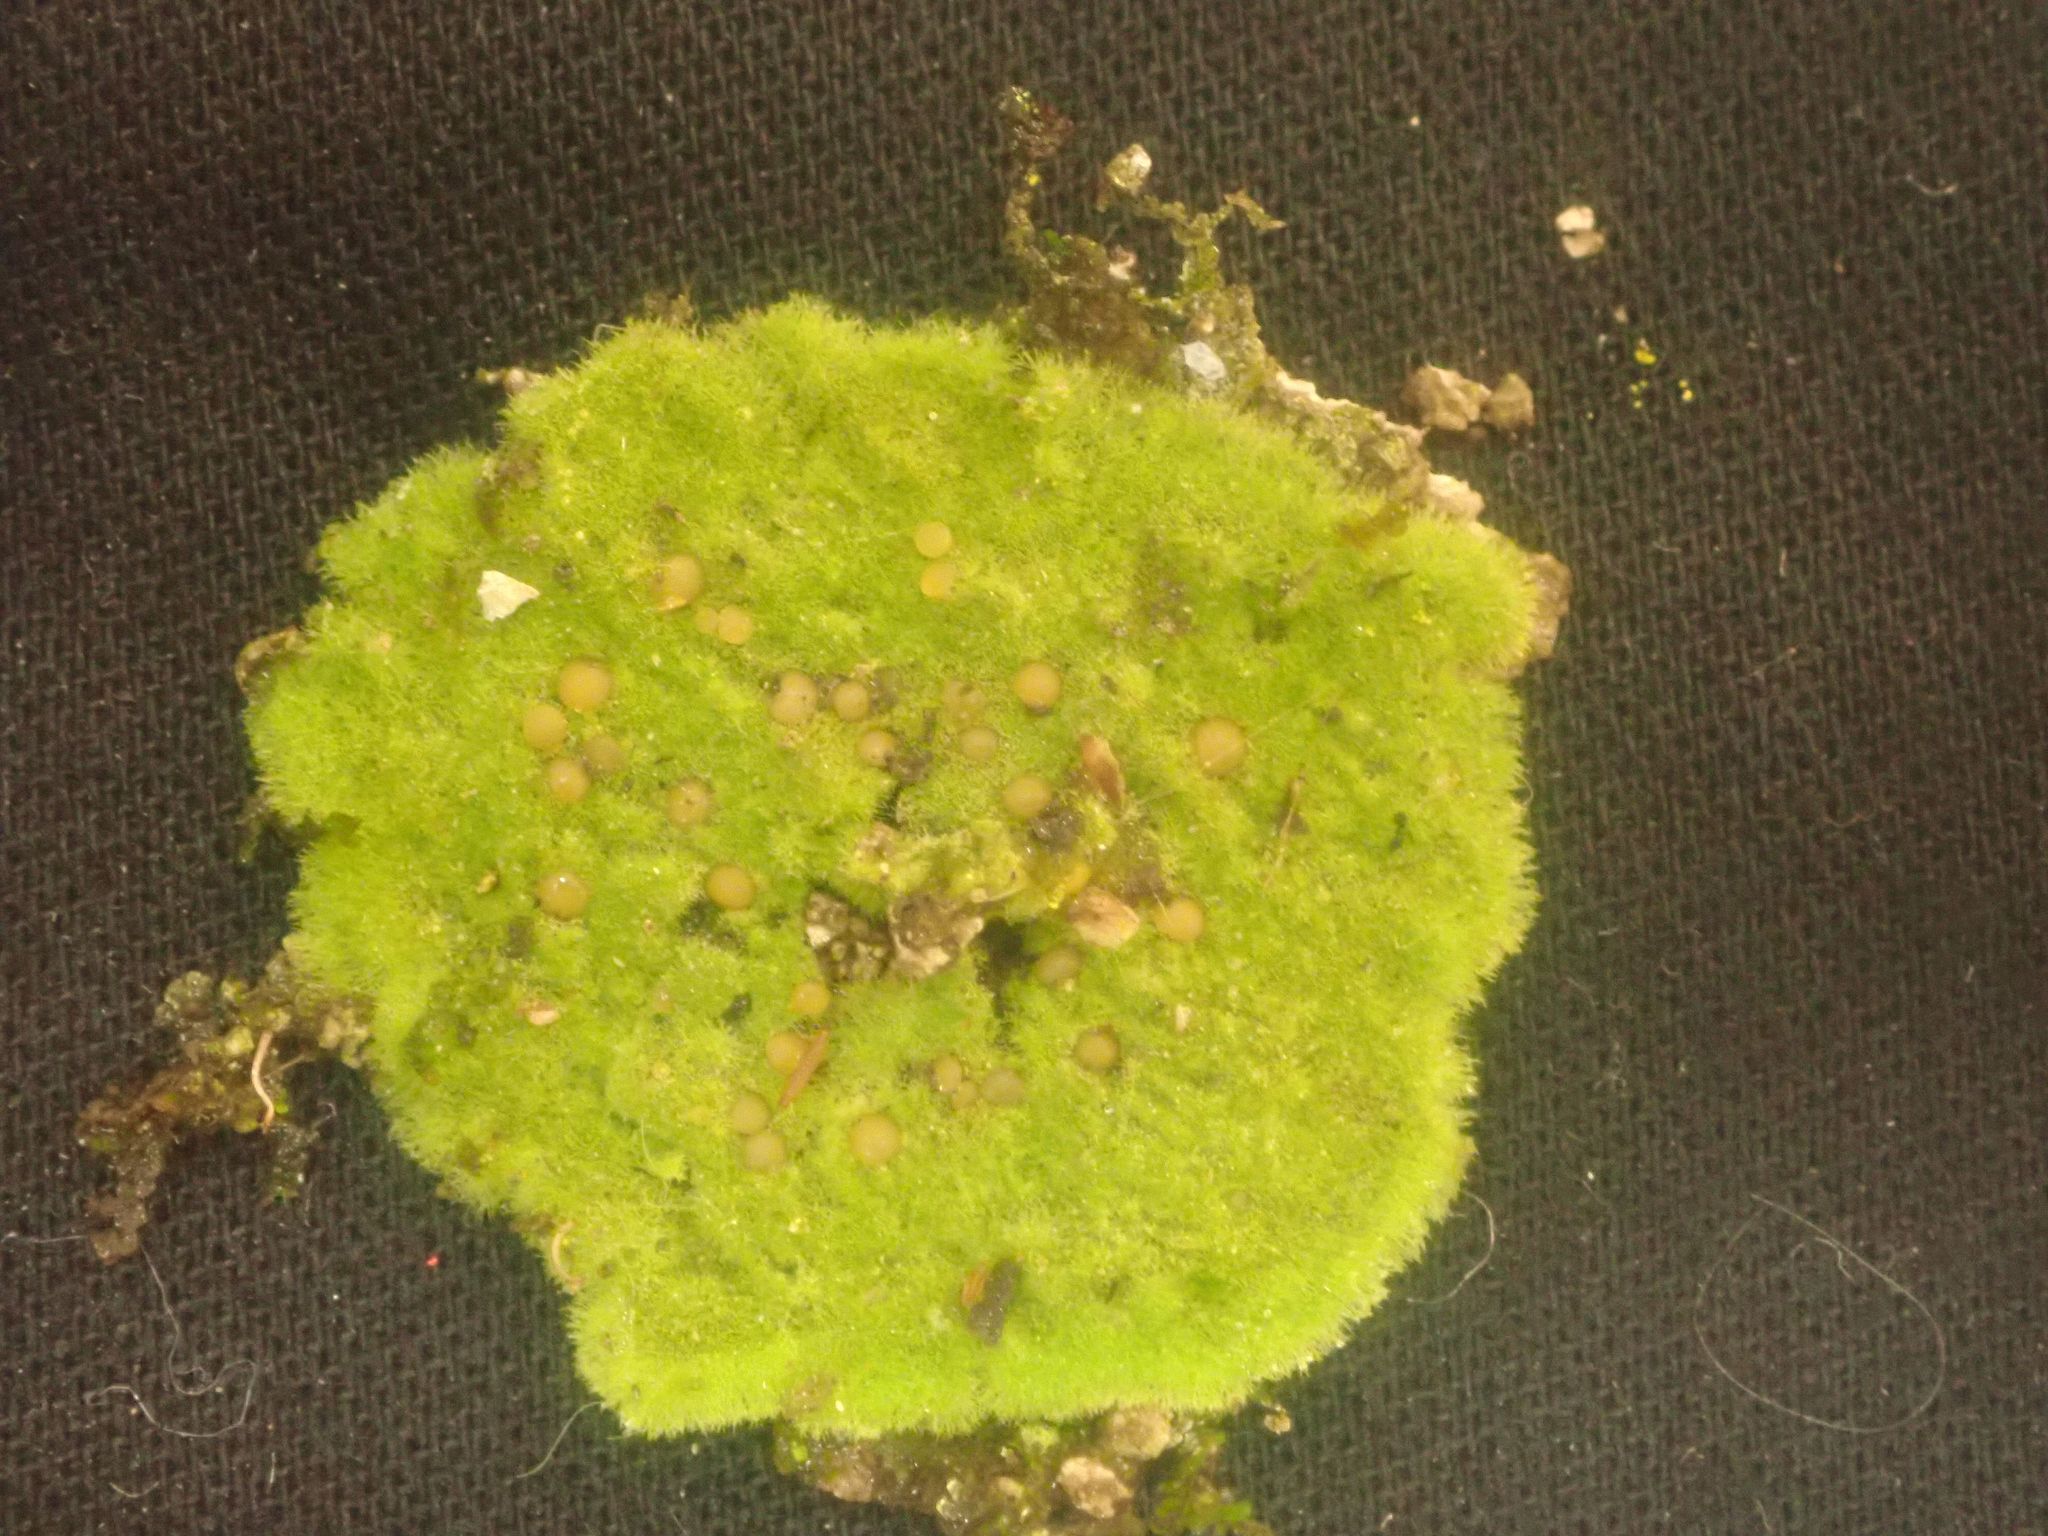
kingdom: Fungi
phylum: Ascomycota
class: Lecanoromycetes
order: Ostropales
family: Coenogoniaceae
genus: Coenogonium
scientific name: Coenogonium implexum
